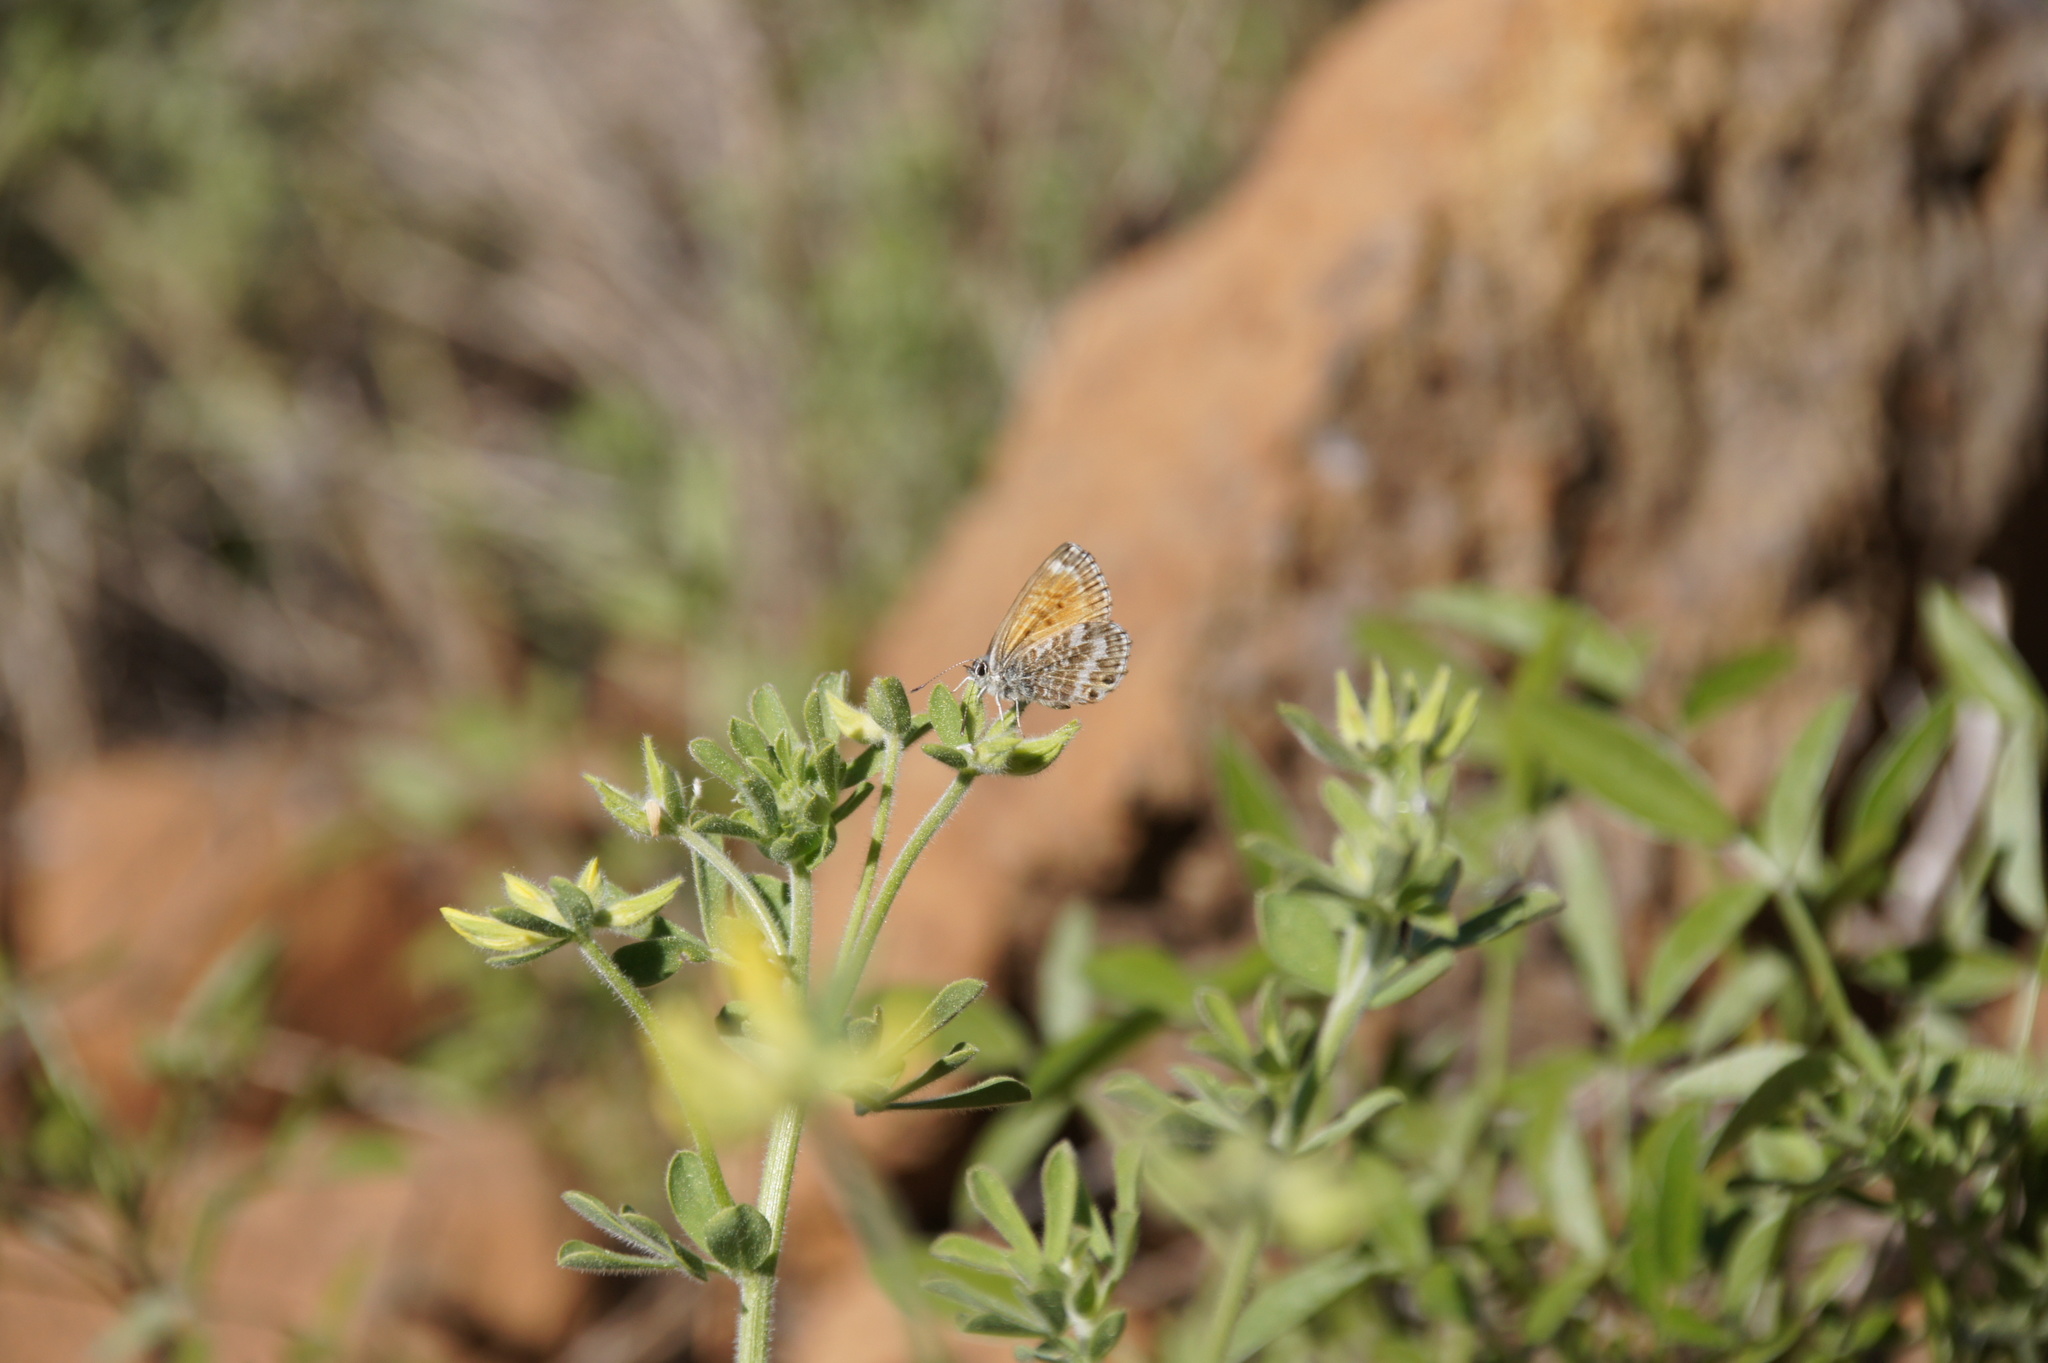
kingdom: Animalia
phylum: Arthropoda
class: Insecta
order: Lepidoptera
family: Lycaenidae
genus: Cyclyrius
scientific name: Cyclyrius webbianus
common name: Canary blue
